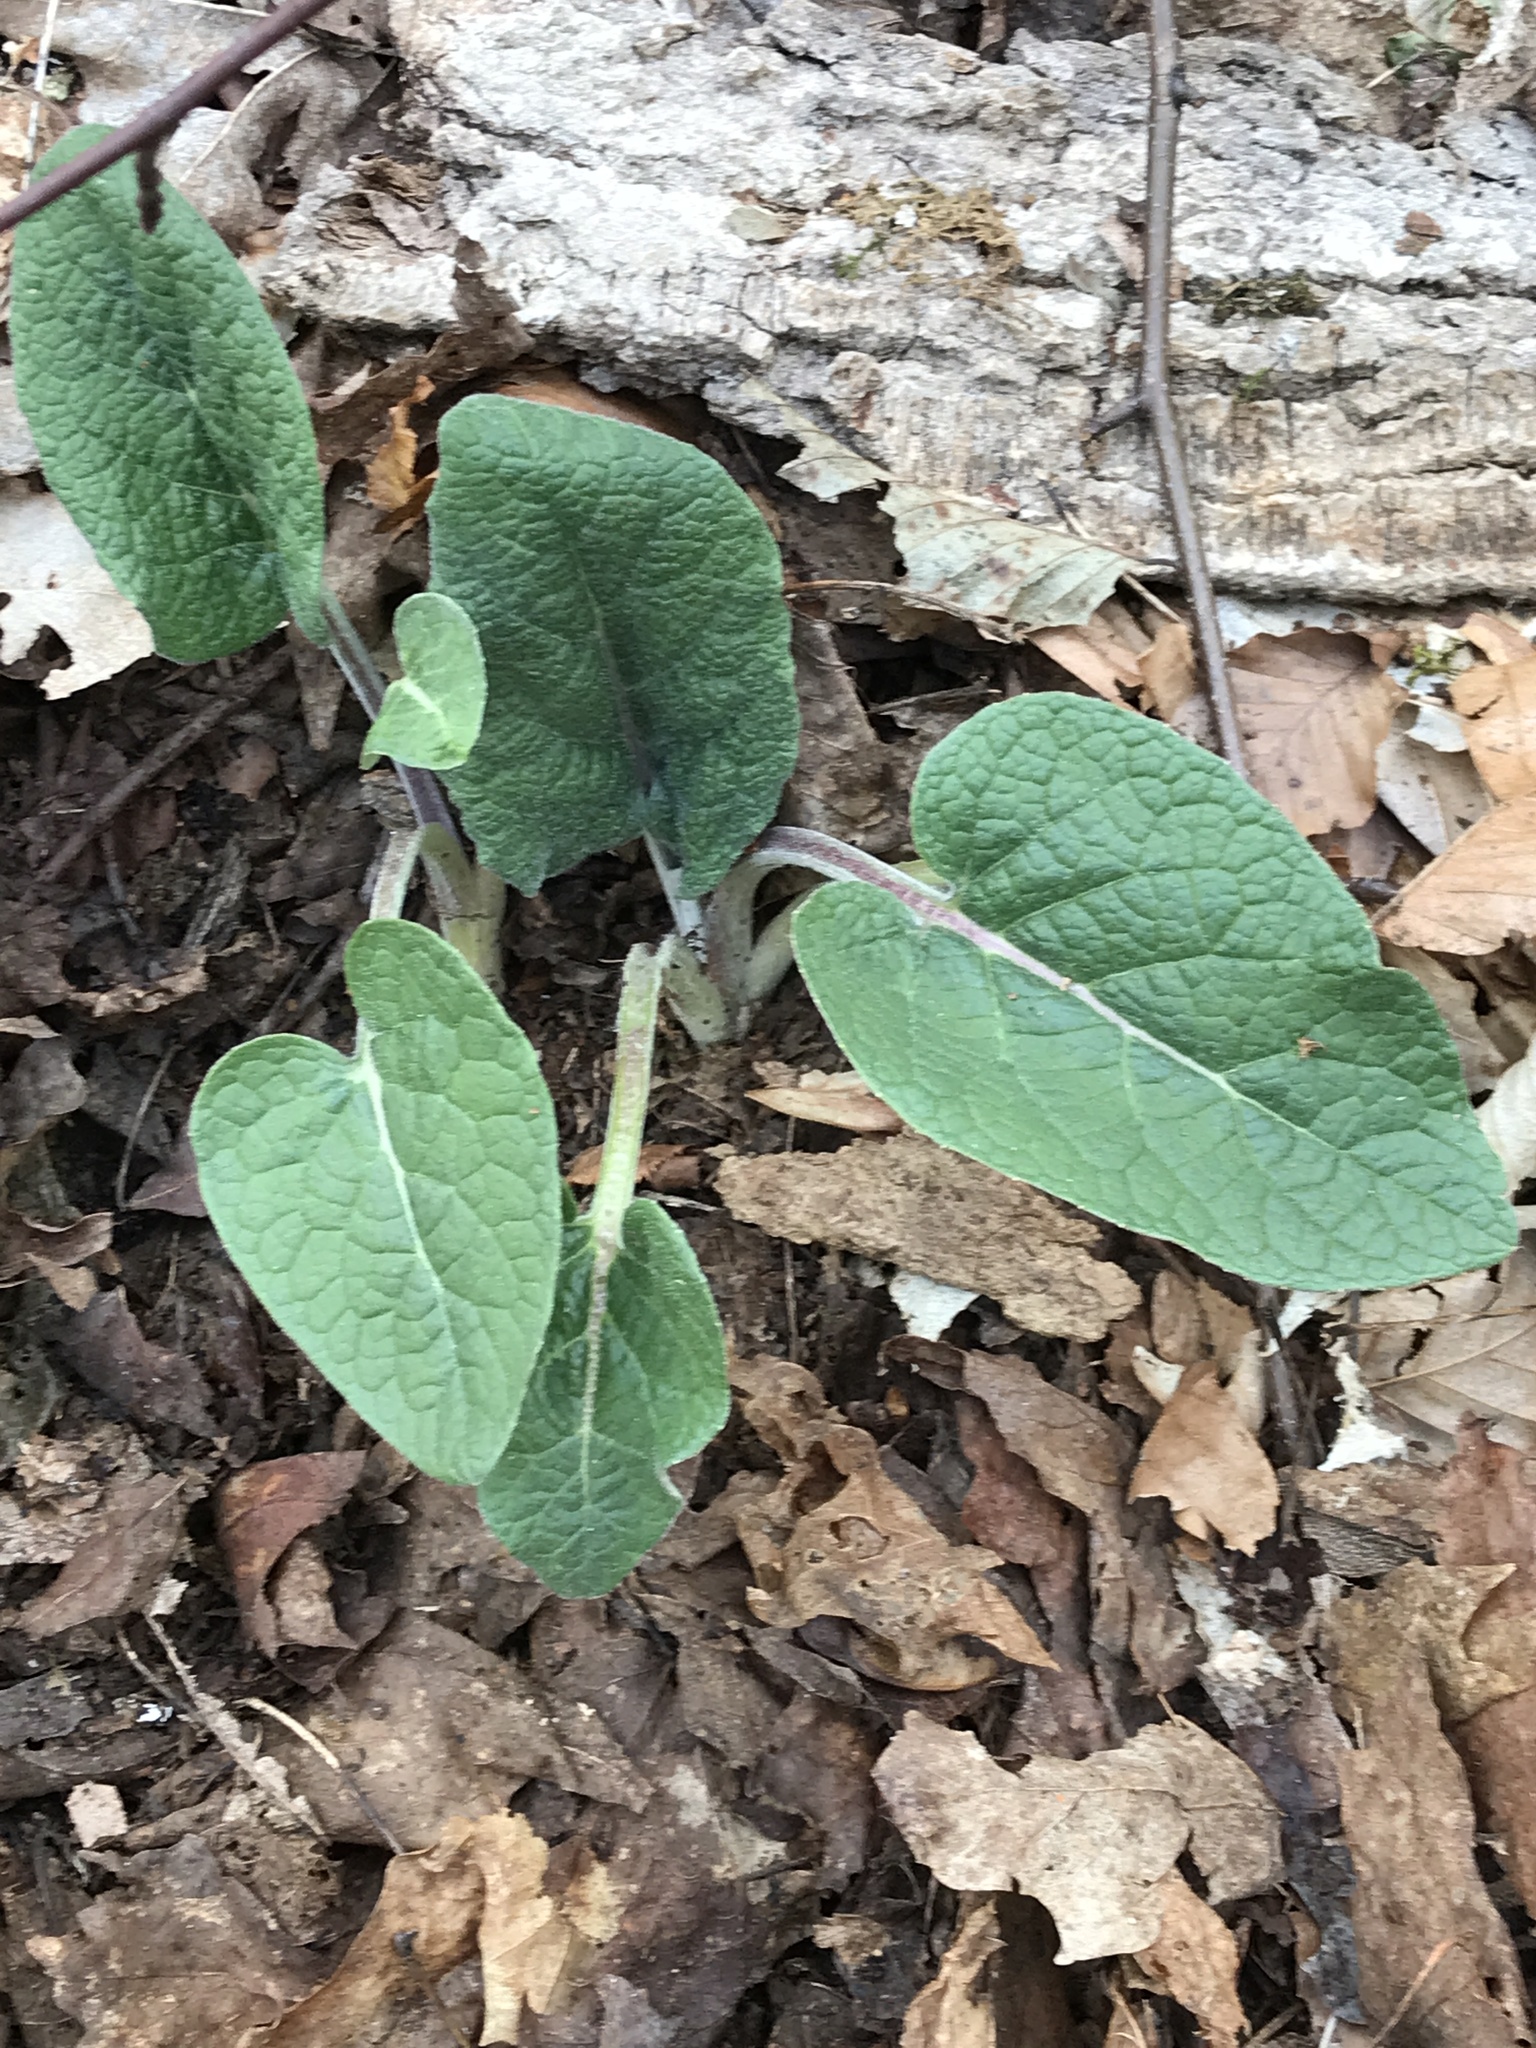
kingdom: Plantae
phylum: Tracheophyta
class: Magnoliopsida
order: Asterales
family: Asteraceae
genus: Arctium
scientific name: Arctium
